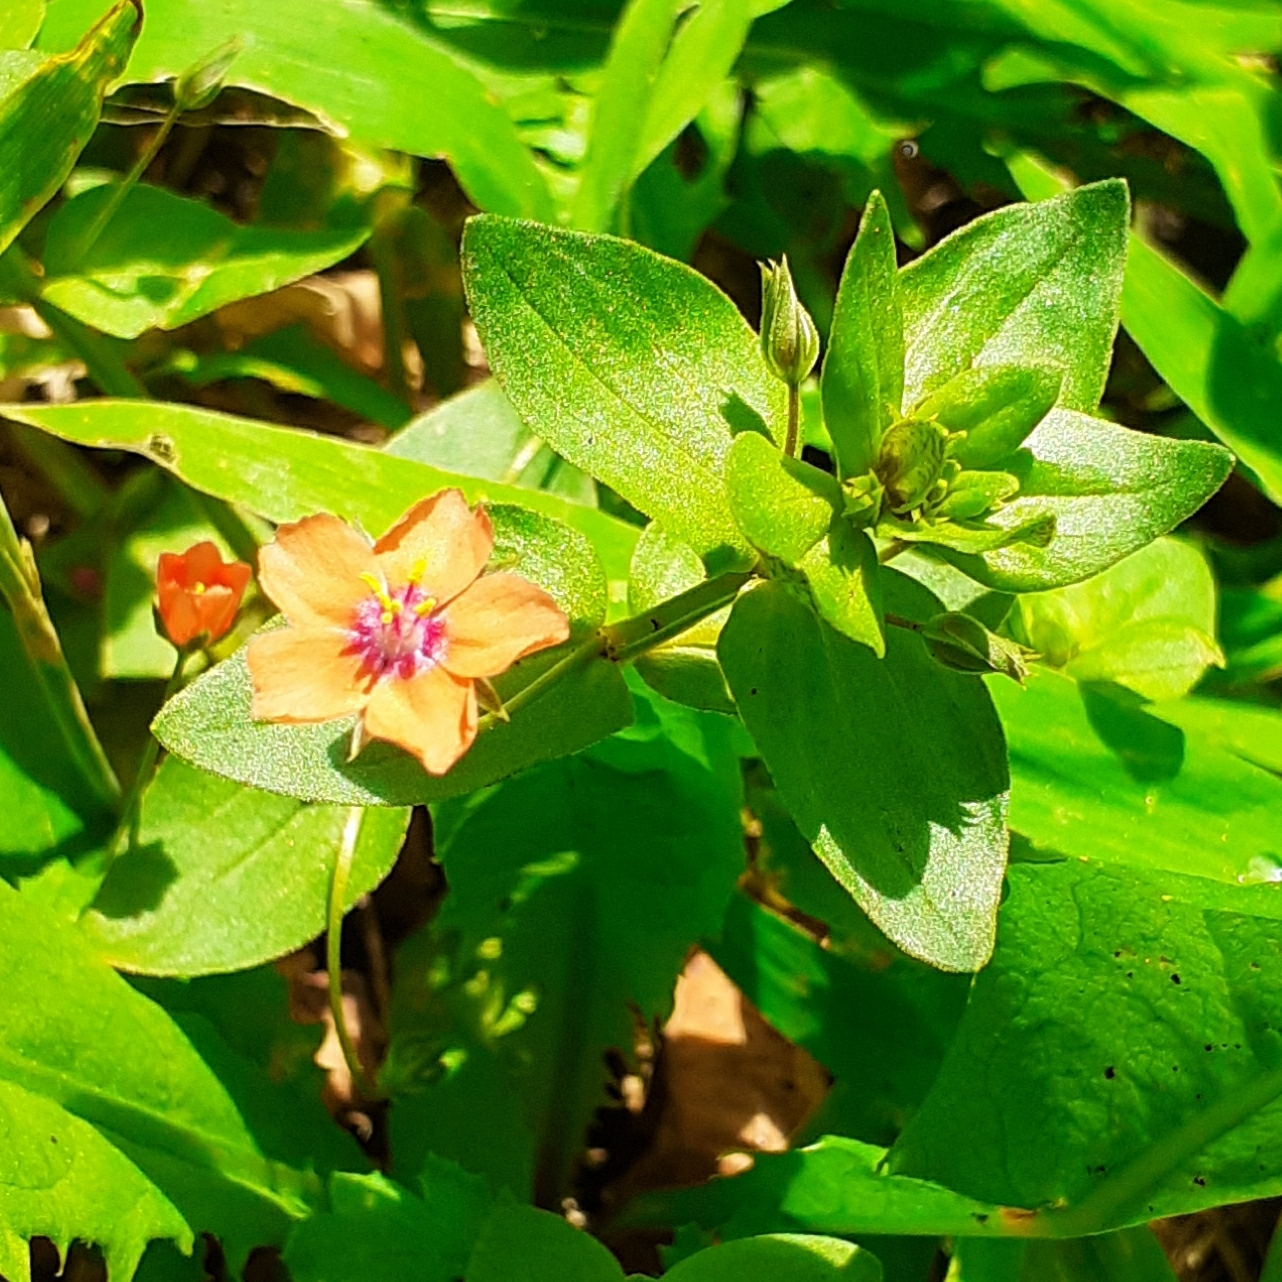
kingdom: Plantae
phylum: Tracheophyta
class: Magnoliopsida
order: Ericales
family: Primulaceae
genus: Lysimachia
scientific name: Lysimachia arvensis
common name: Scarlet pimpernel
